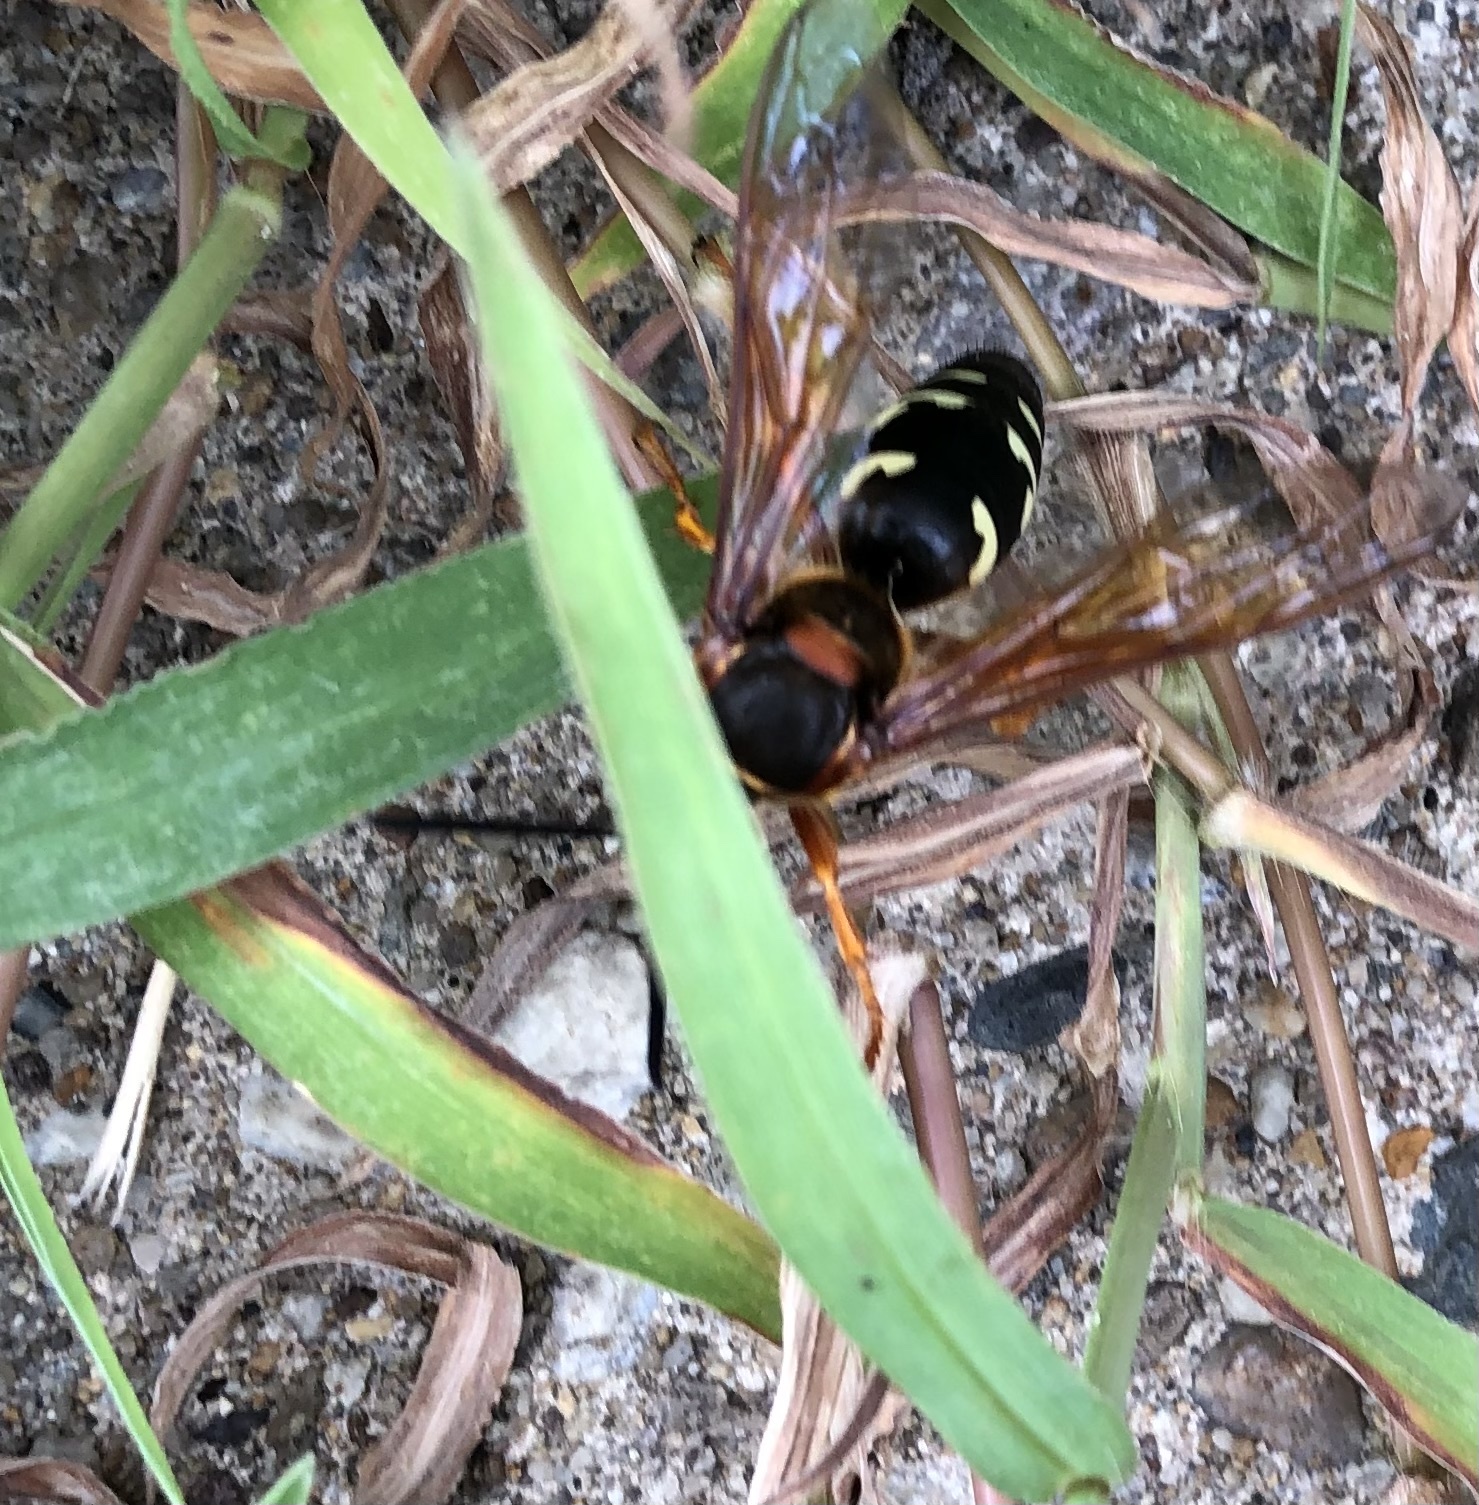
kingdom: Animalia
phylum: Arthropoda
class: Insecta
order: Hymenoptera
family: Crabronidae
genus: Sphecius
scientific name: Sphecius speciosus
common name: Cicada killer
